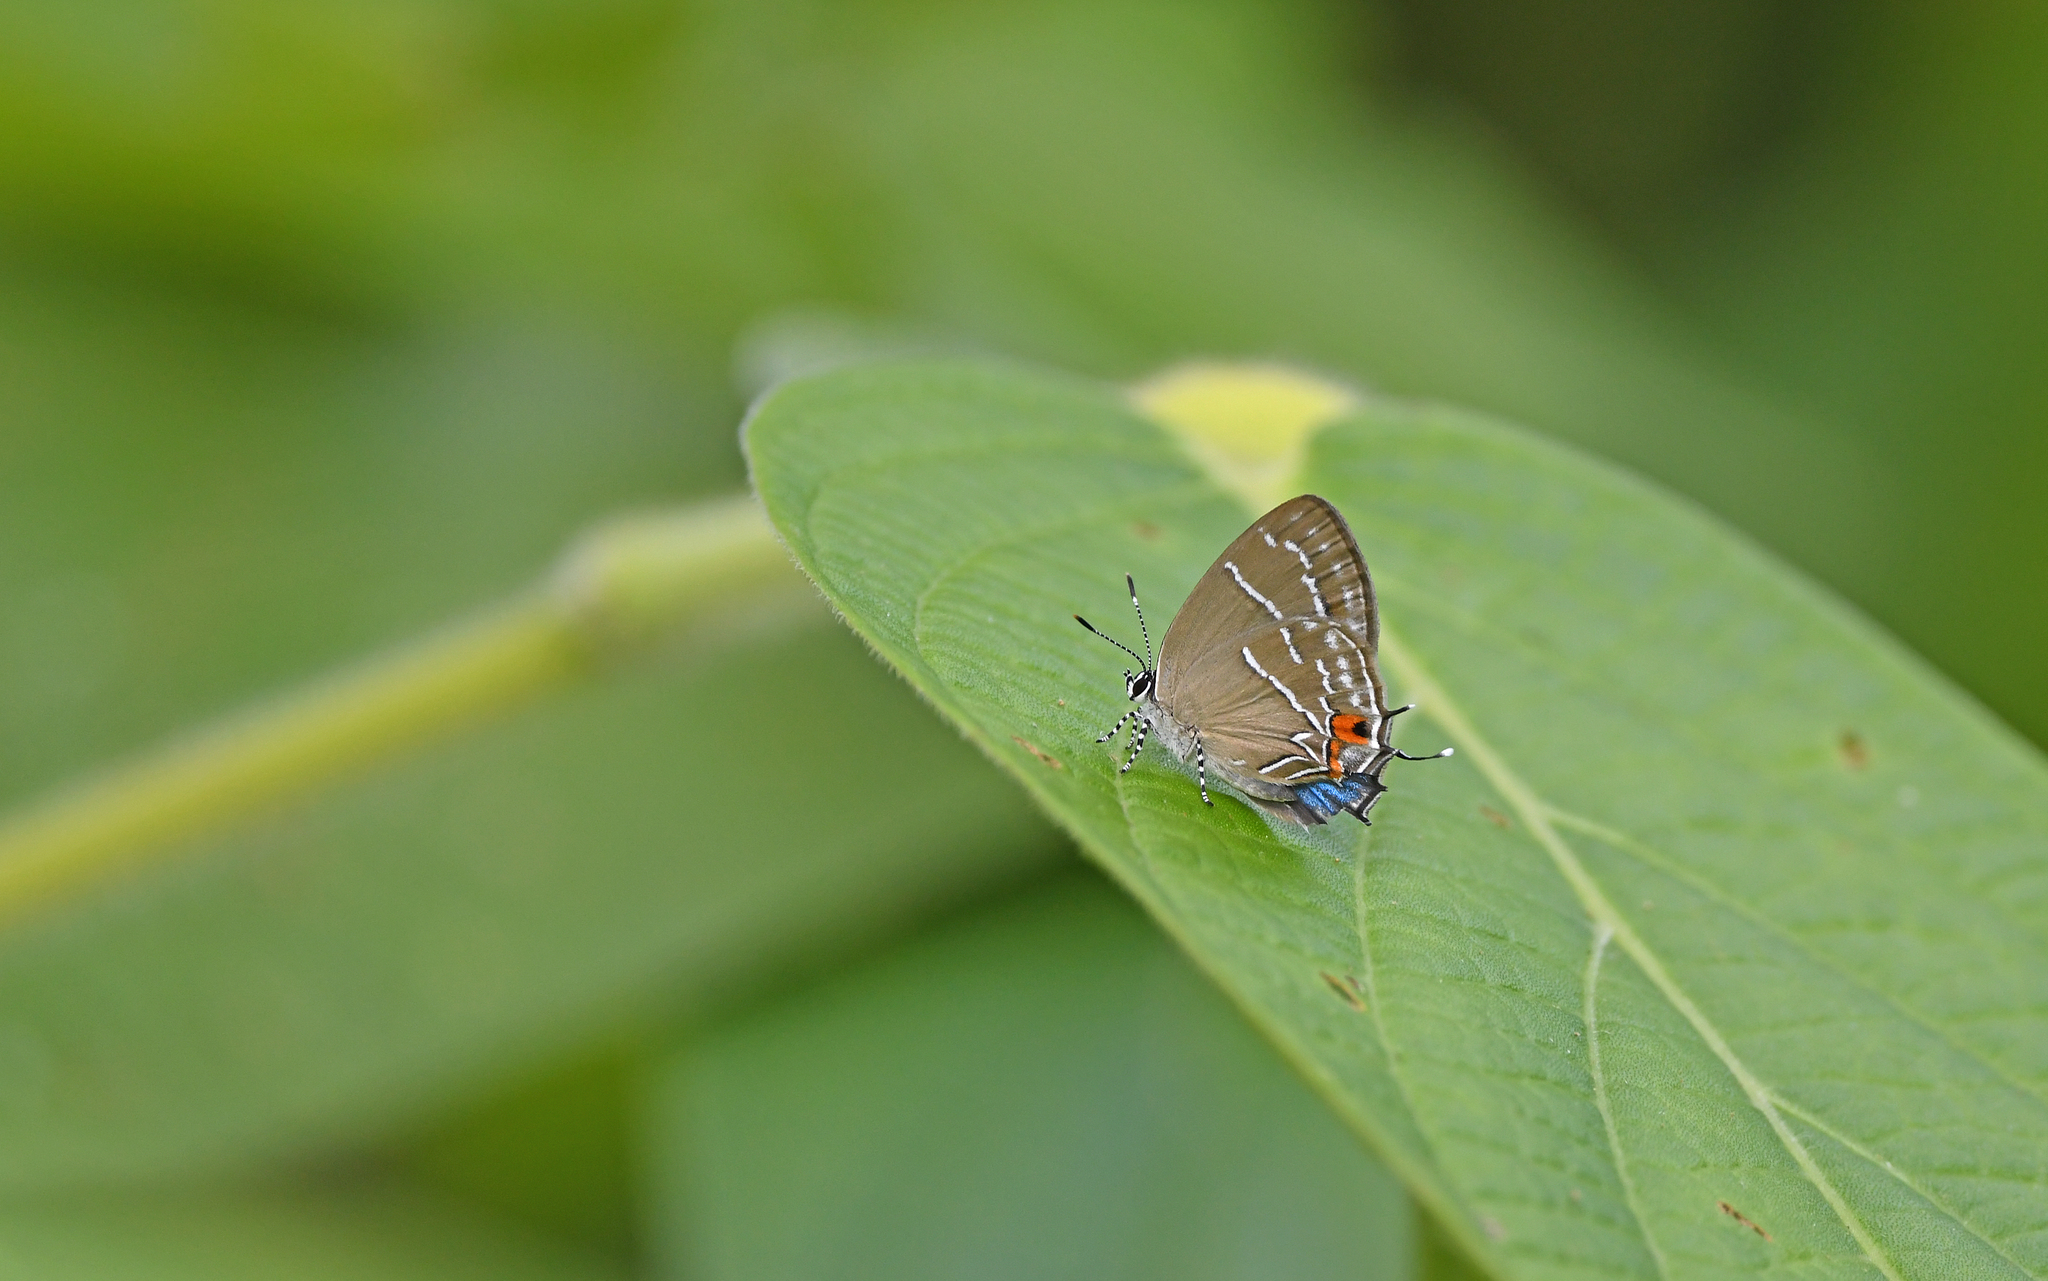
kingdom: Animalia
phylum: Arthropoda
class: Insecta
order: Lepidoptera
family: Lycaenidae
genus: Thestius
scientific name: Thestius
